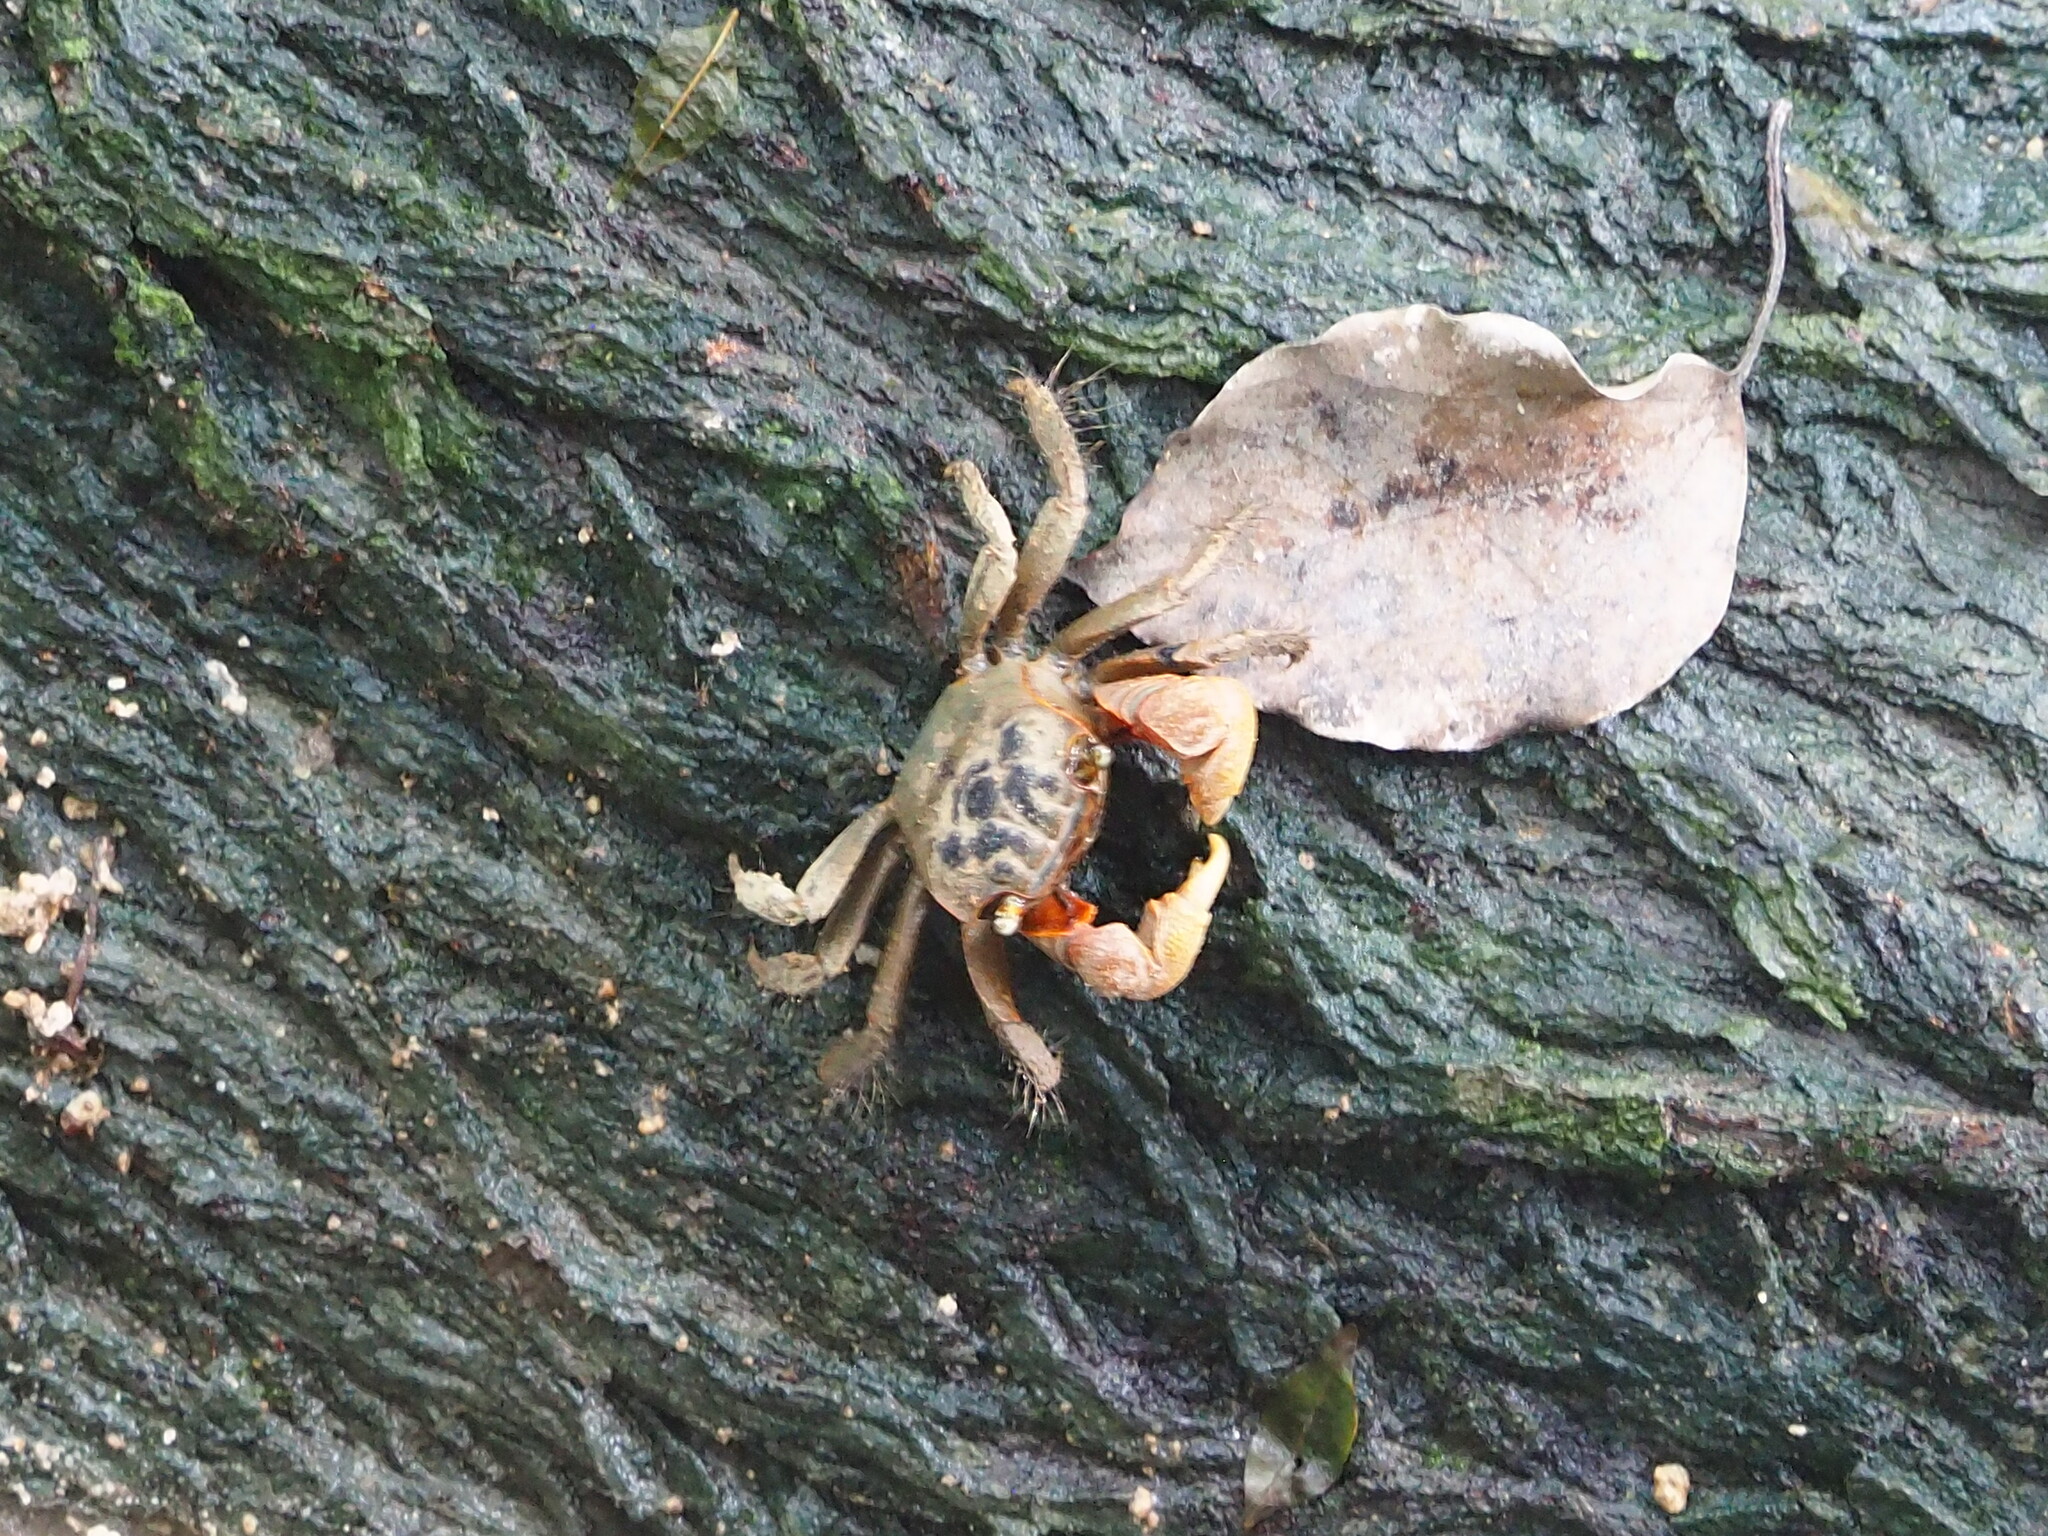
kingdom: Animalia
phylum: Arthropoda
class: Malacostraca
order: Decapoda
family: Sesarmidae
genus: Orisarma
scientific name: Orisarma dehaani
